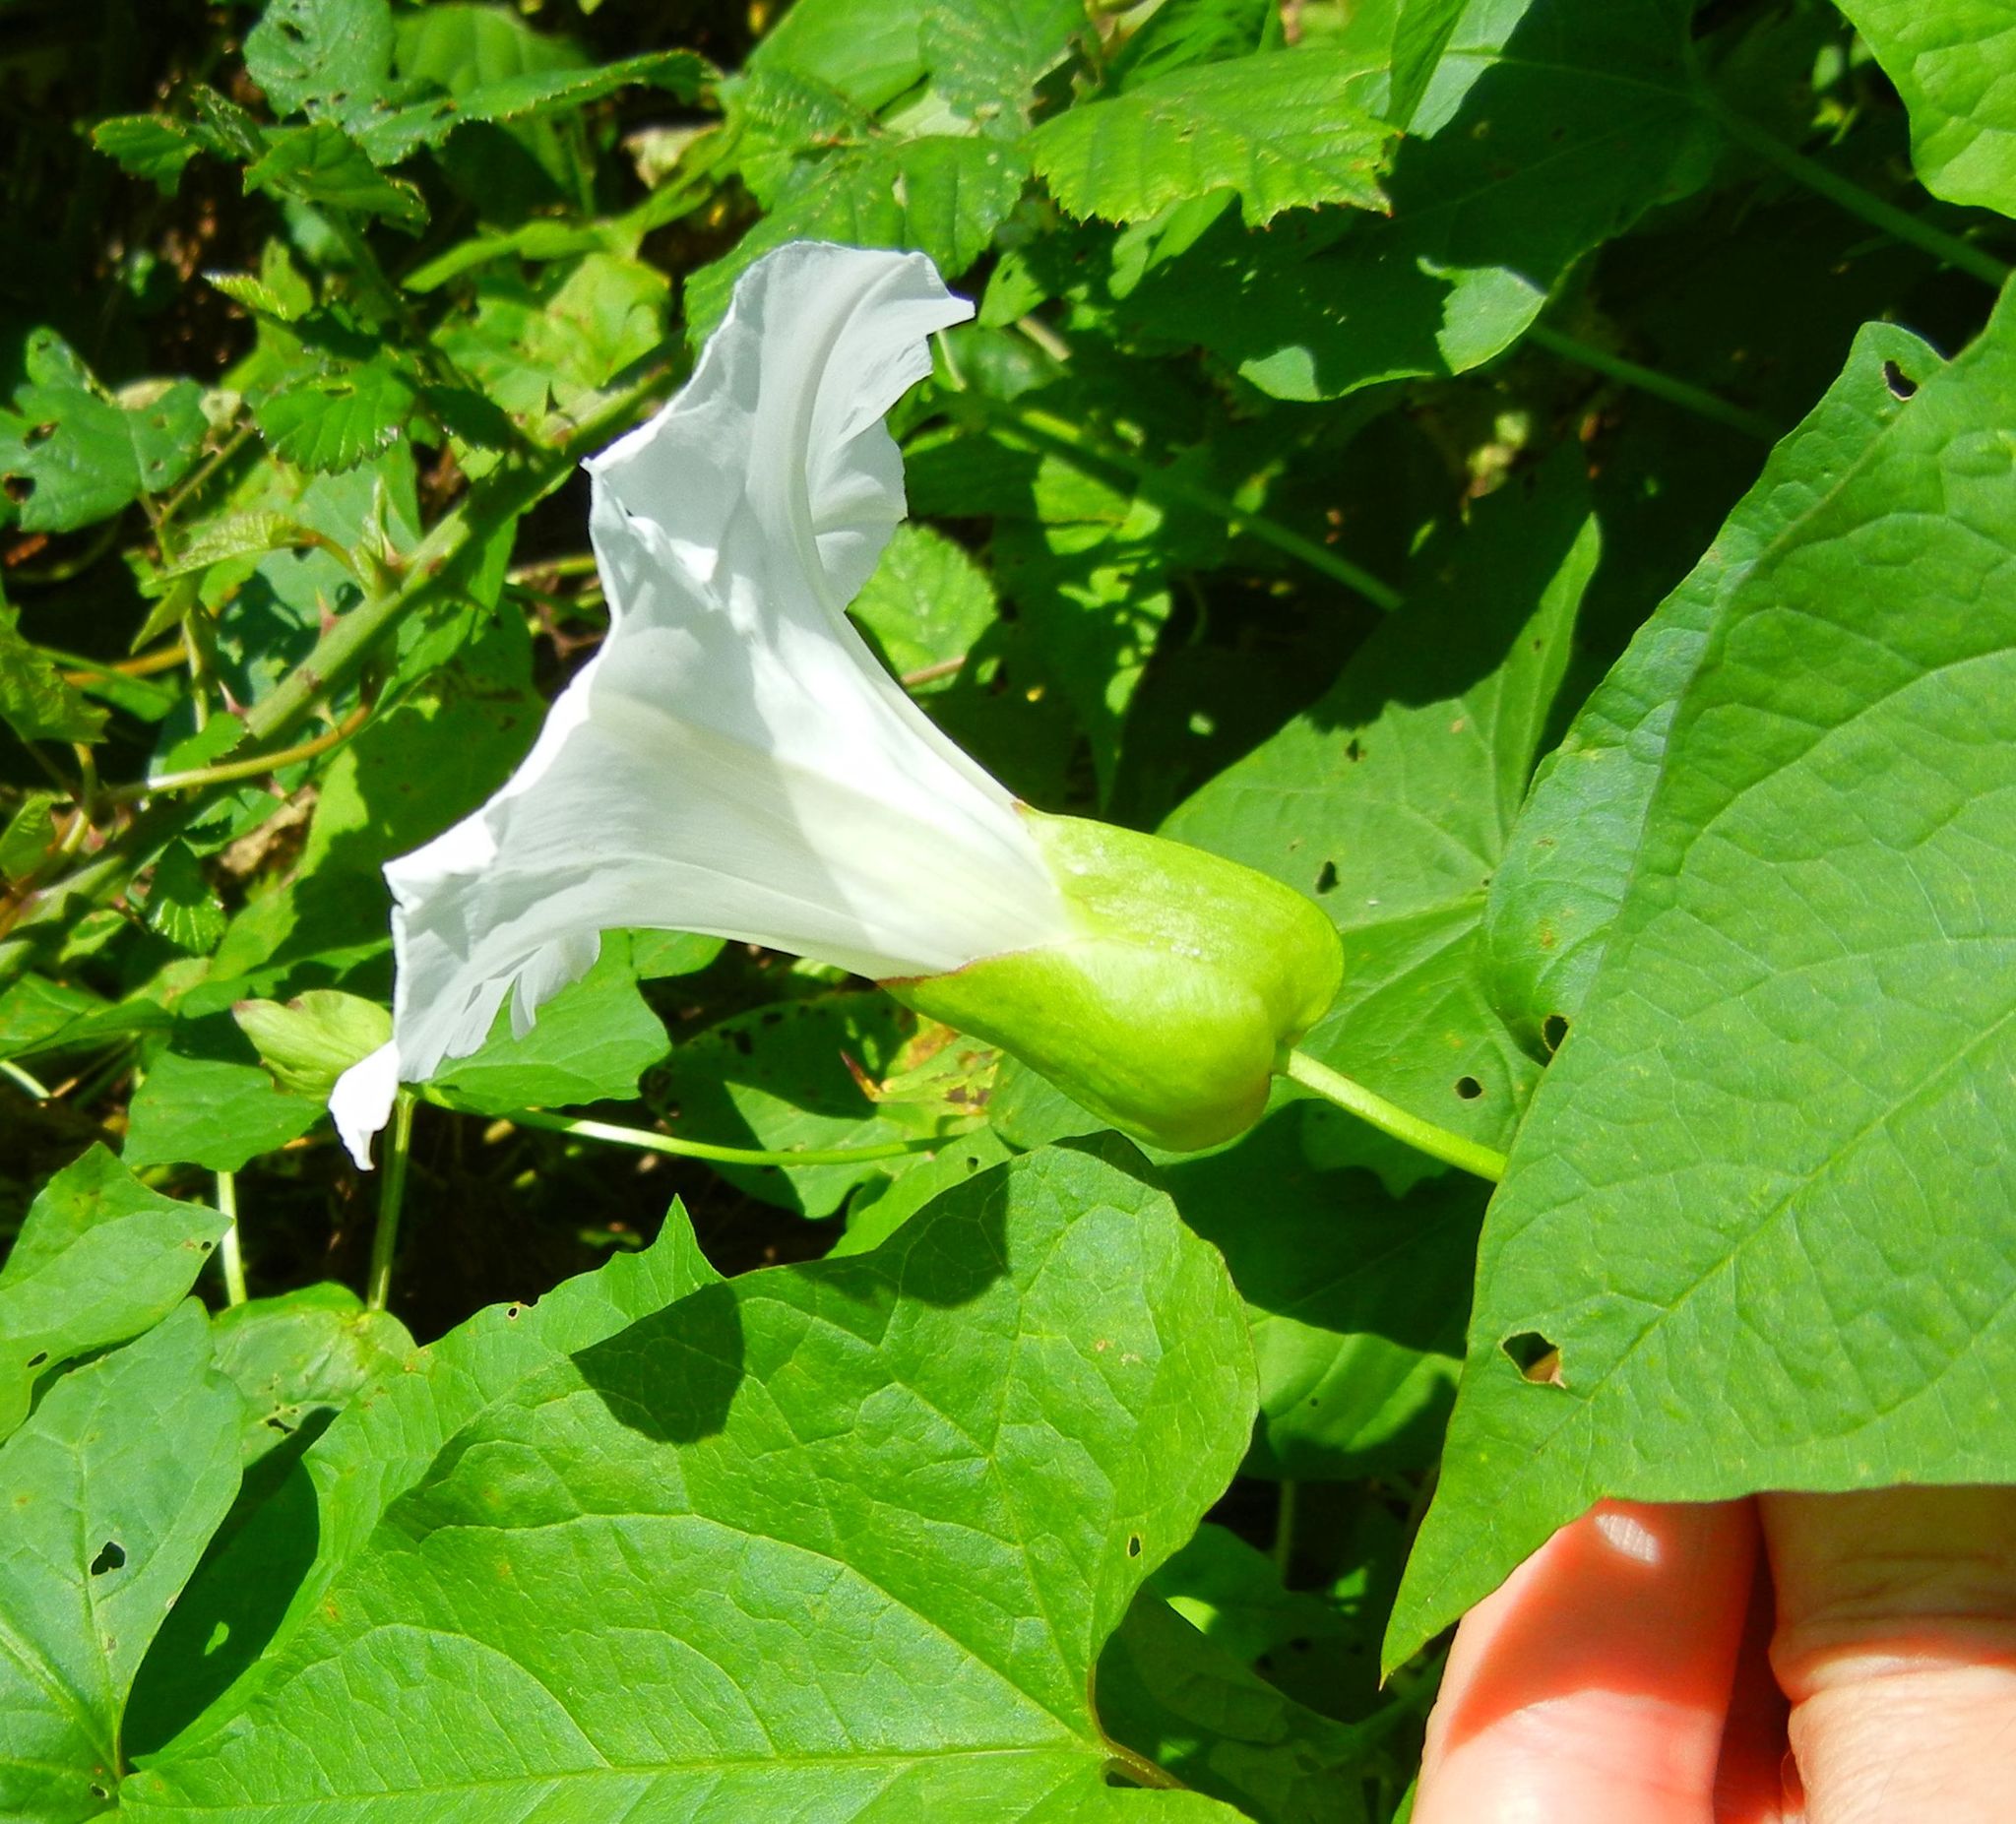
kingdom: Plantae
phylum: Tracheophyta
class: Magnoliopsida
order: Solanales
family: Convolvulaceae
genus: Calystegia
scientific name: Calystegia silvatica
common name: Large bindweed
